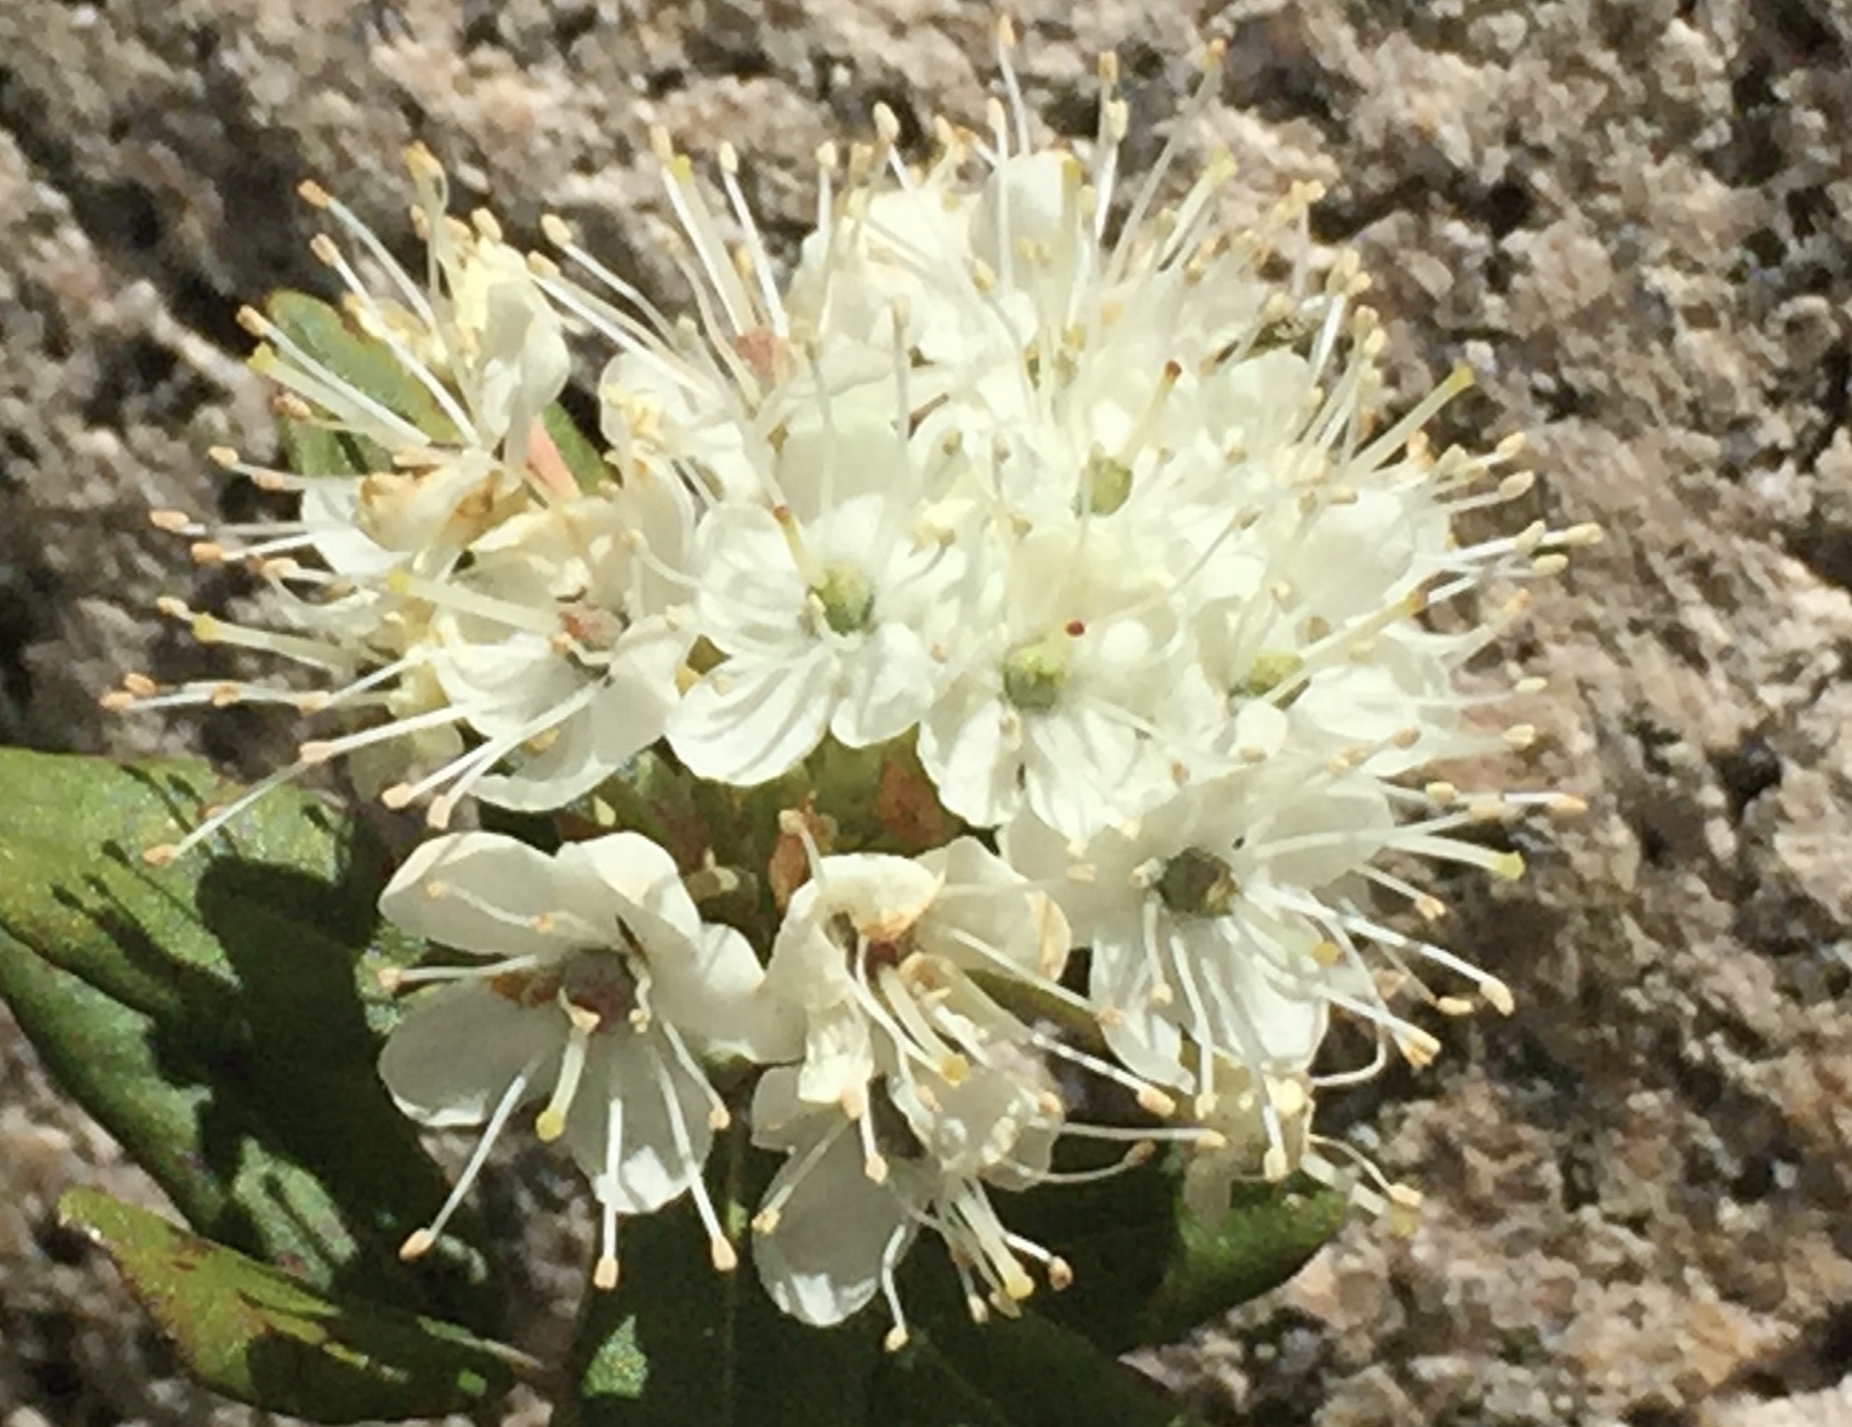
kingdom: Plantae
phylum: Tracheophyta
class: Magnoliopsida
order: Ericales
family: Ericaceae
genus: Rhododendron
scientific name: Rhododendron columbianum
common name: Western labrador tea
